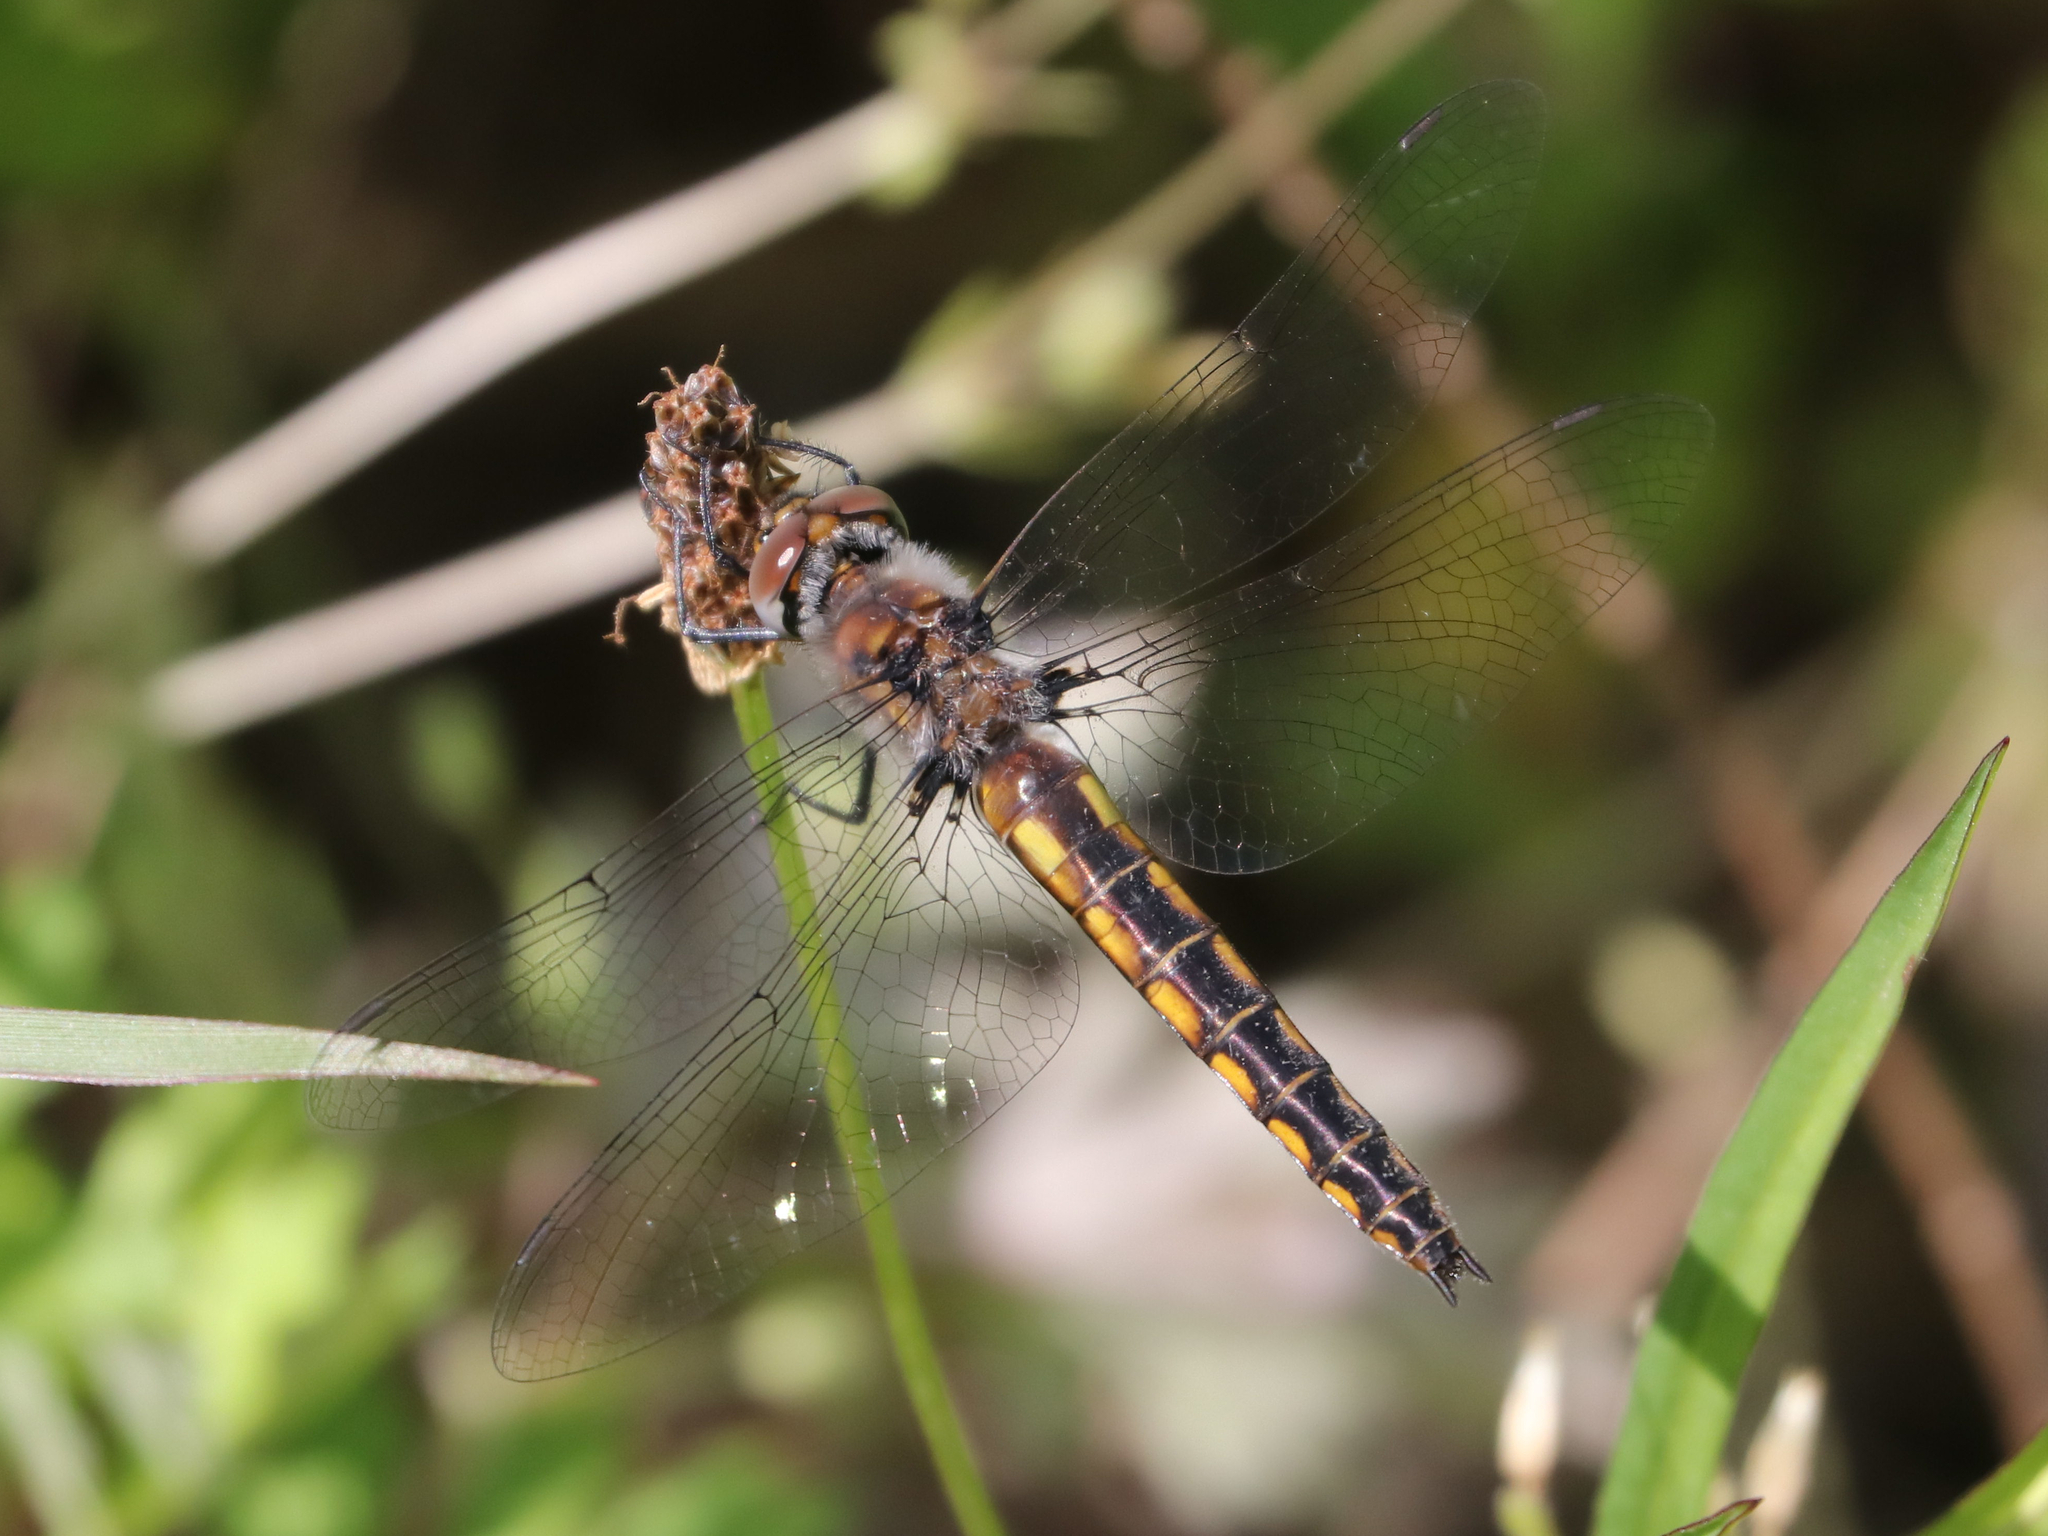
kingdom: Animalia
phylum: Arthropoda
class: Insecta
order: Odonata
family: Corduliidae
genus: Epitheca
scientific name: Epitheca cynosura
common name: Common baskettail
